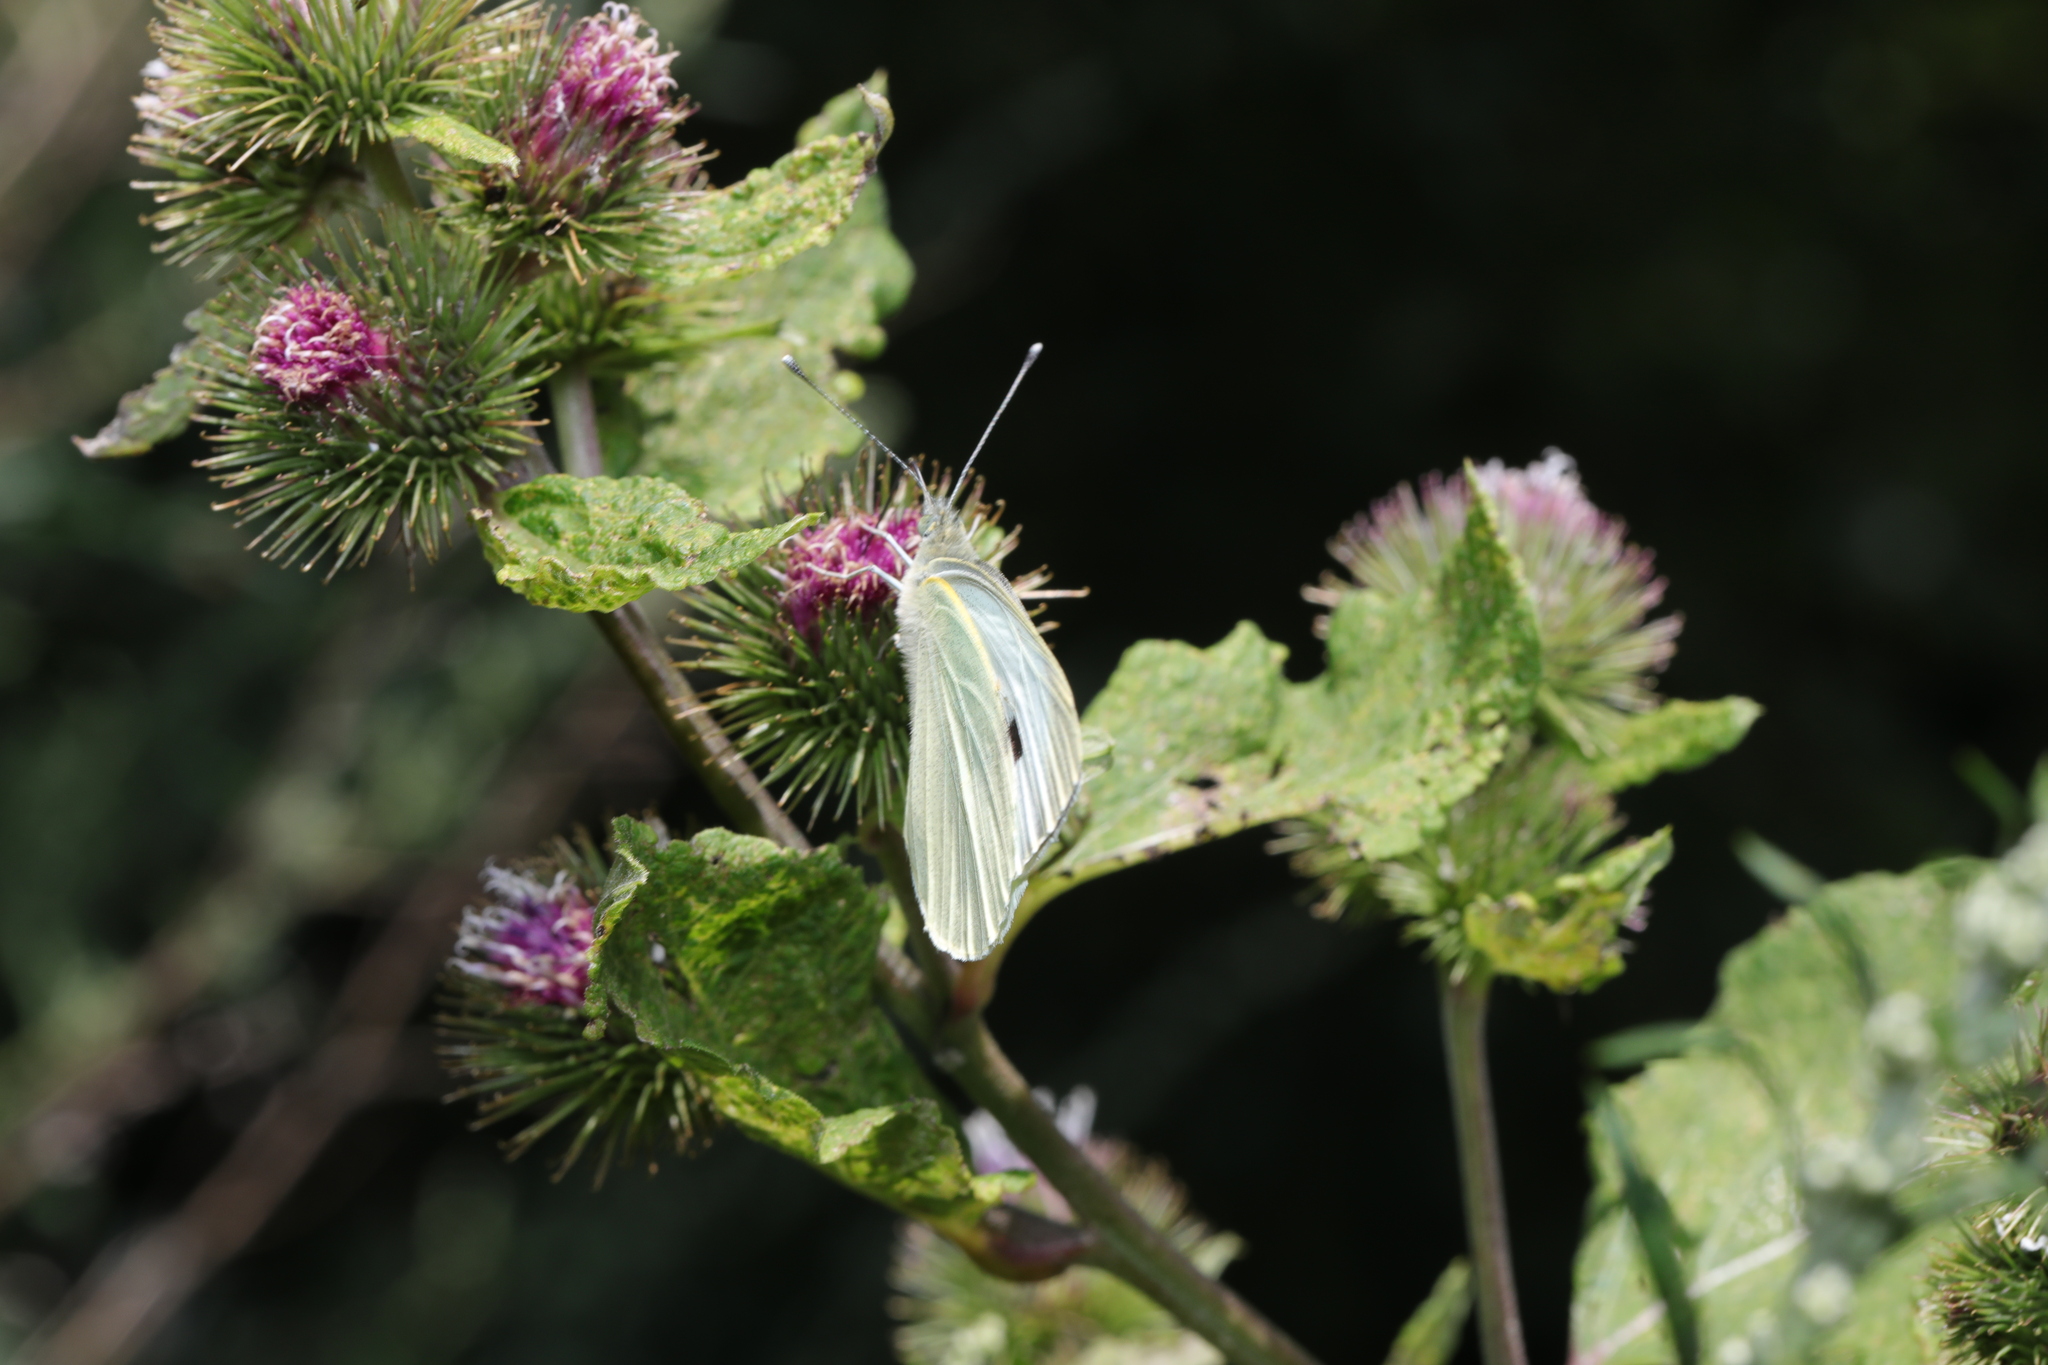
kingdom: Animalia
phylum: Arthropoda
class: Insecta
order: Lepidoptera
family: Pieridae
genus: Pieris
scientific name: Pieris brassicae
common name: Large white
